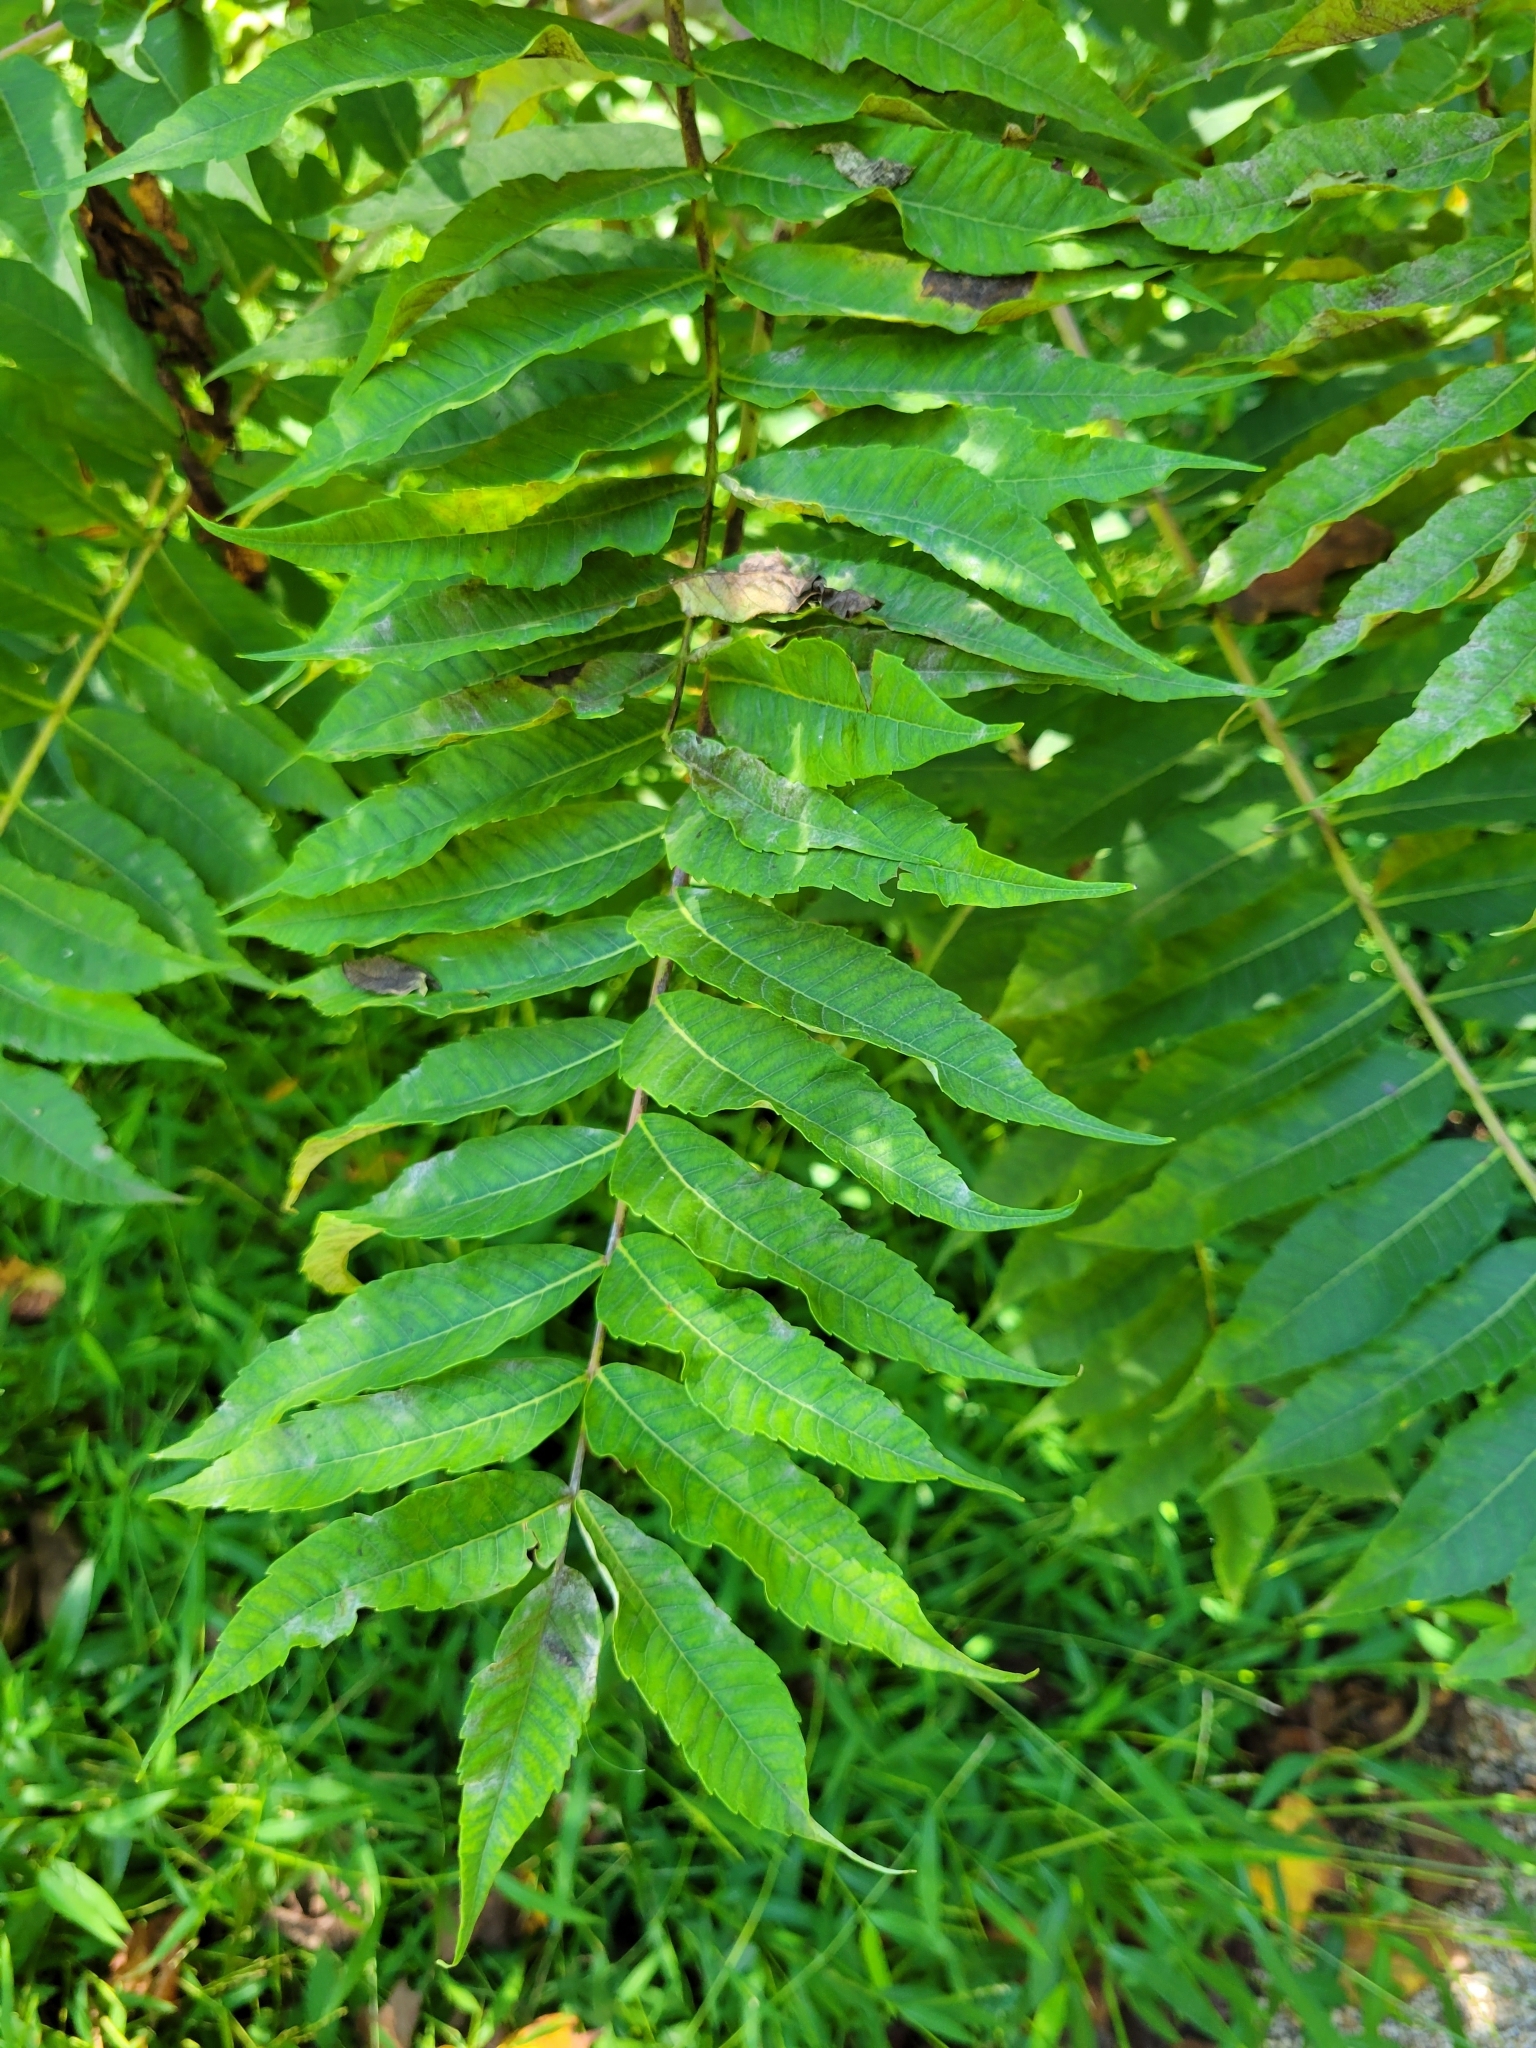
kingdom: Plantae
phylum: Tracheophyta
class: Magnoliopsida
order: Sapindales
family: Anacardiaceae
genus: Rhus
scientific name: Rhus glabra
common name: Scarlet sumac
